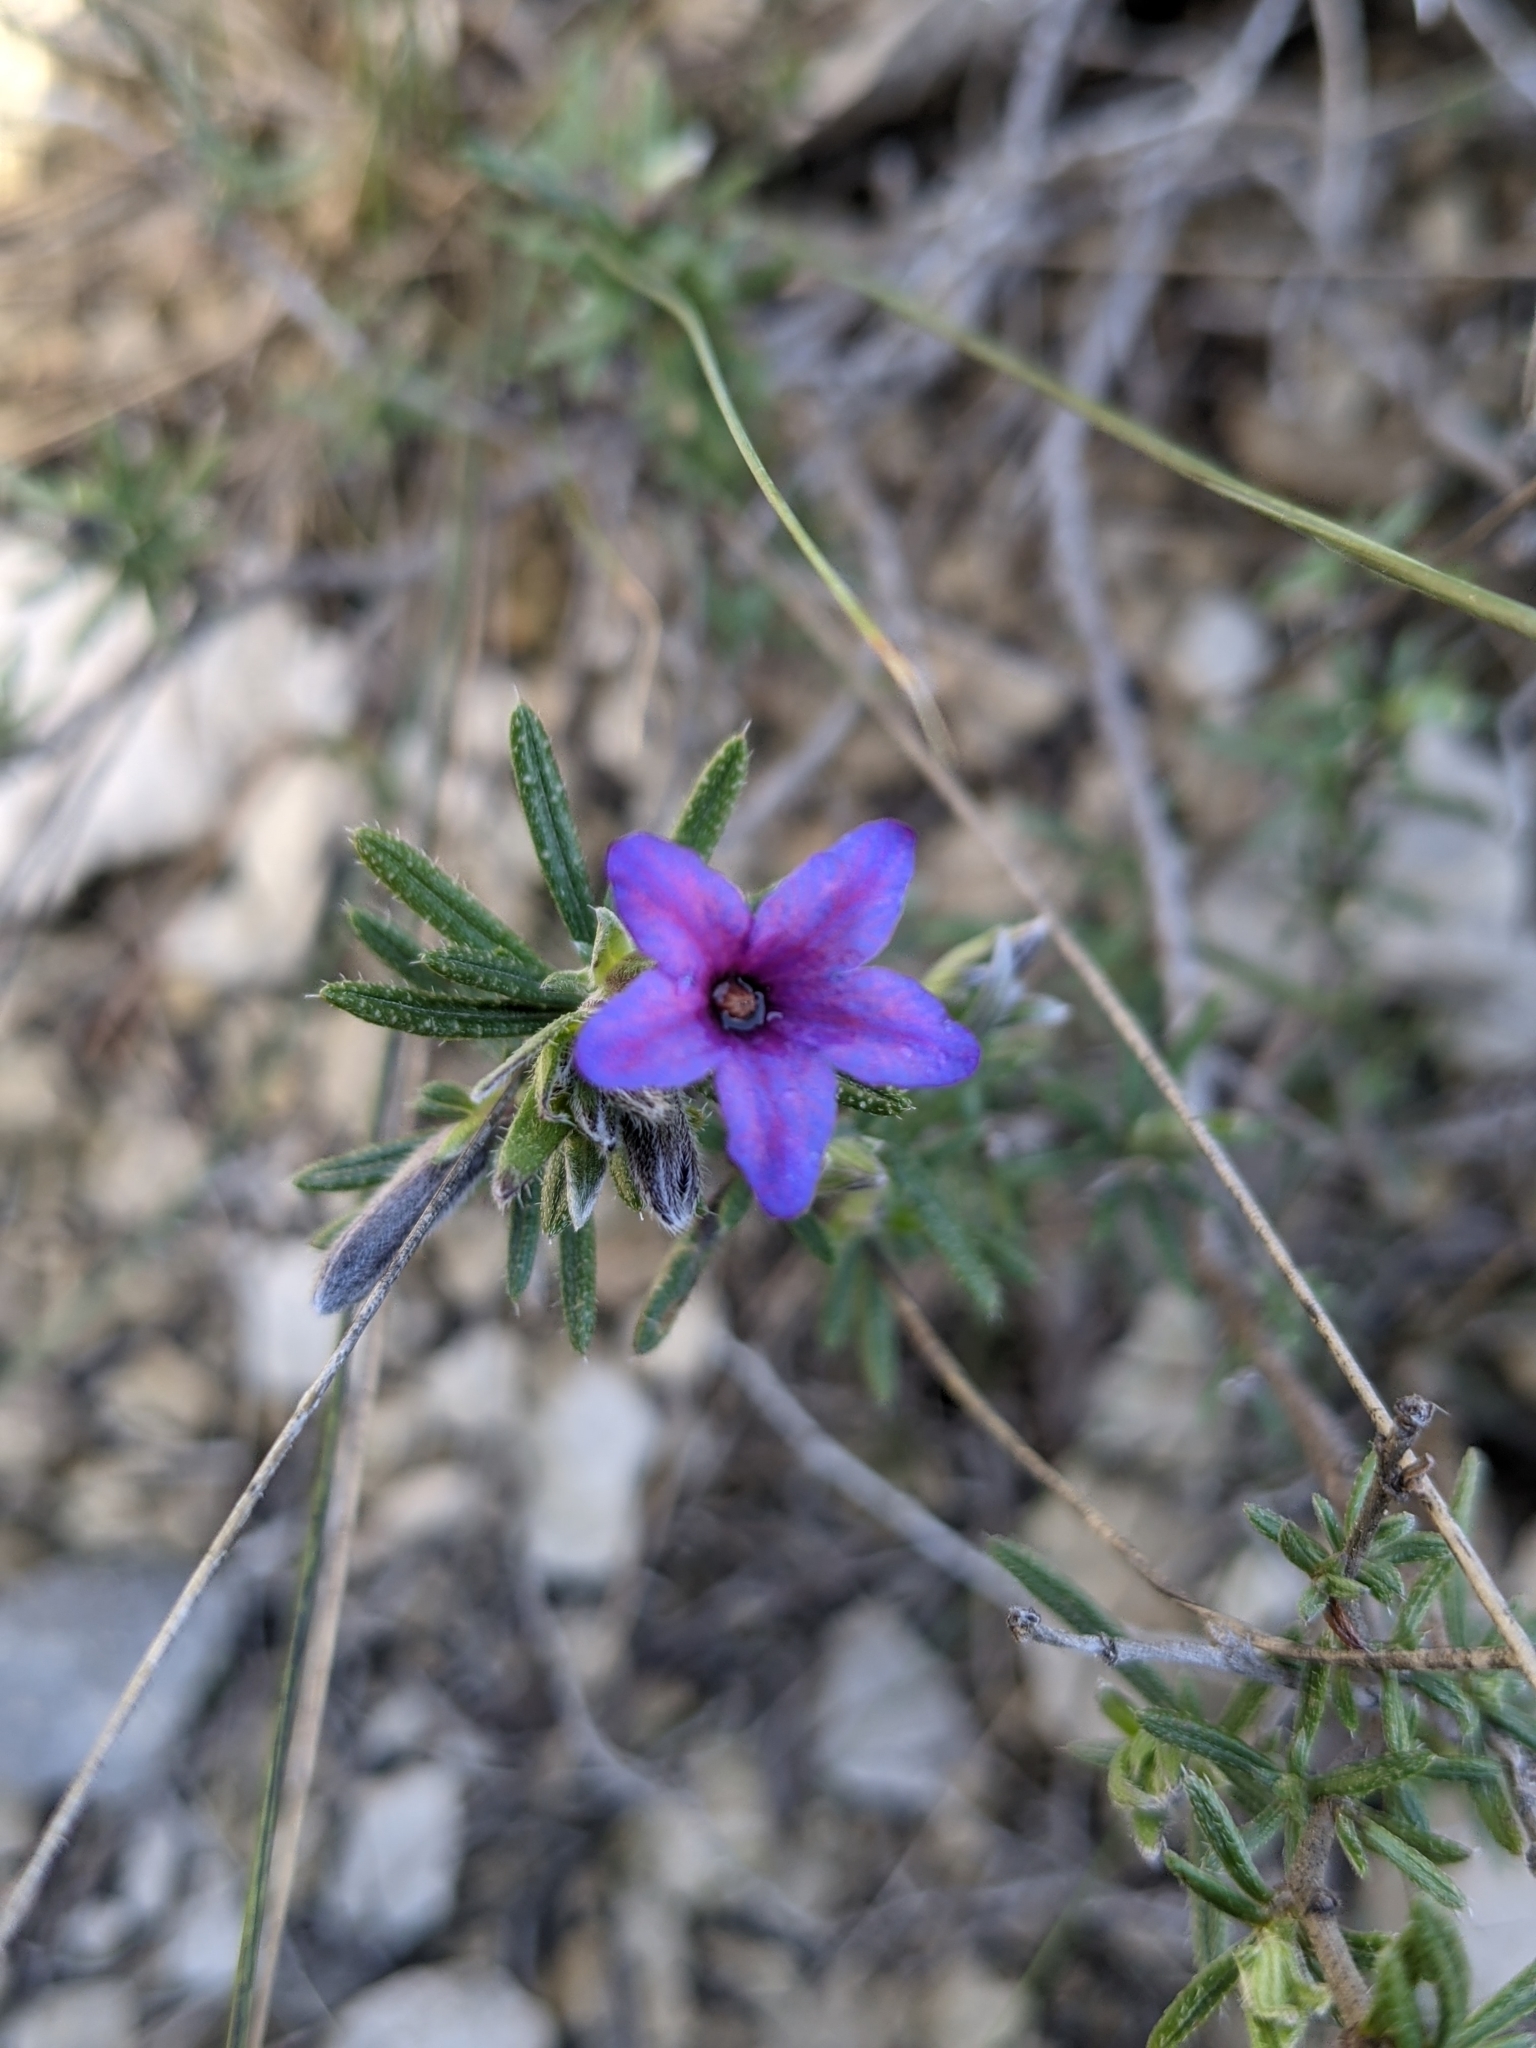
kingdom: Plantae
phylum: Tracheophyta
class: Magnoliopsida
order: Boraginales
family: Boraginaceae
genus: Lithodora
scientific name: Lithodora fruticosa
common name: Shrubby gromwell
